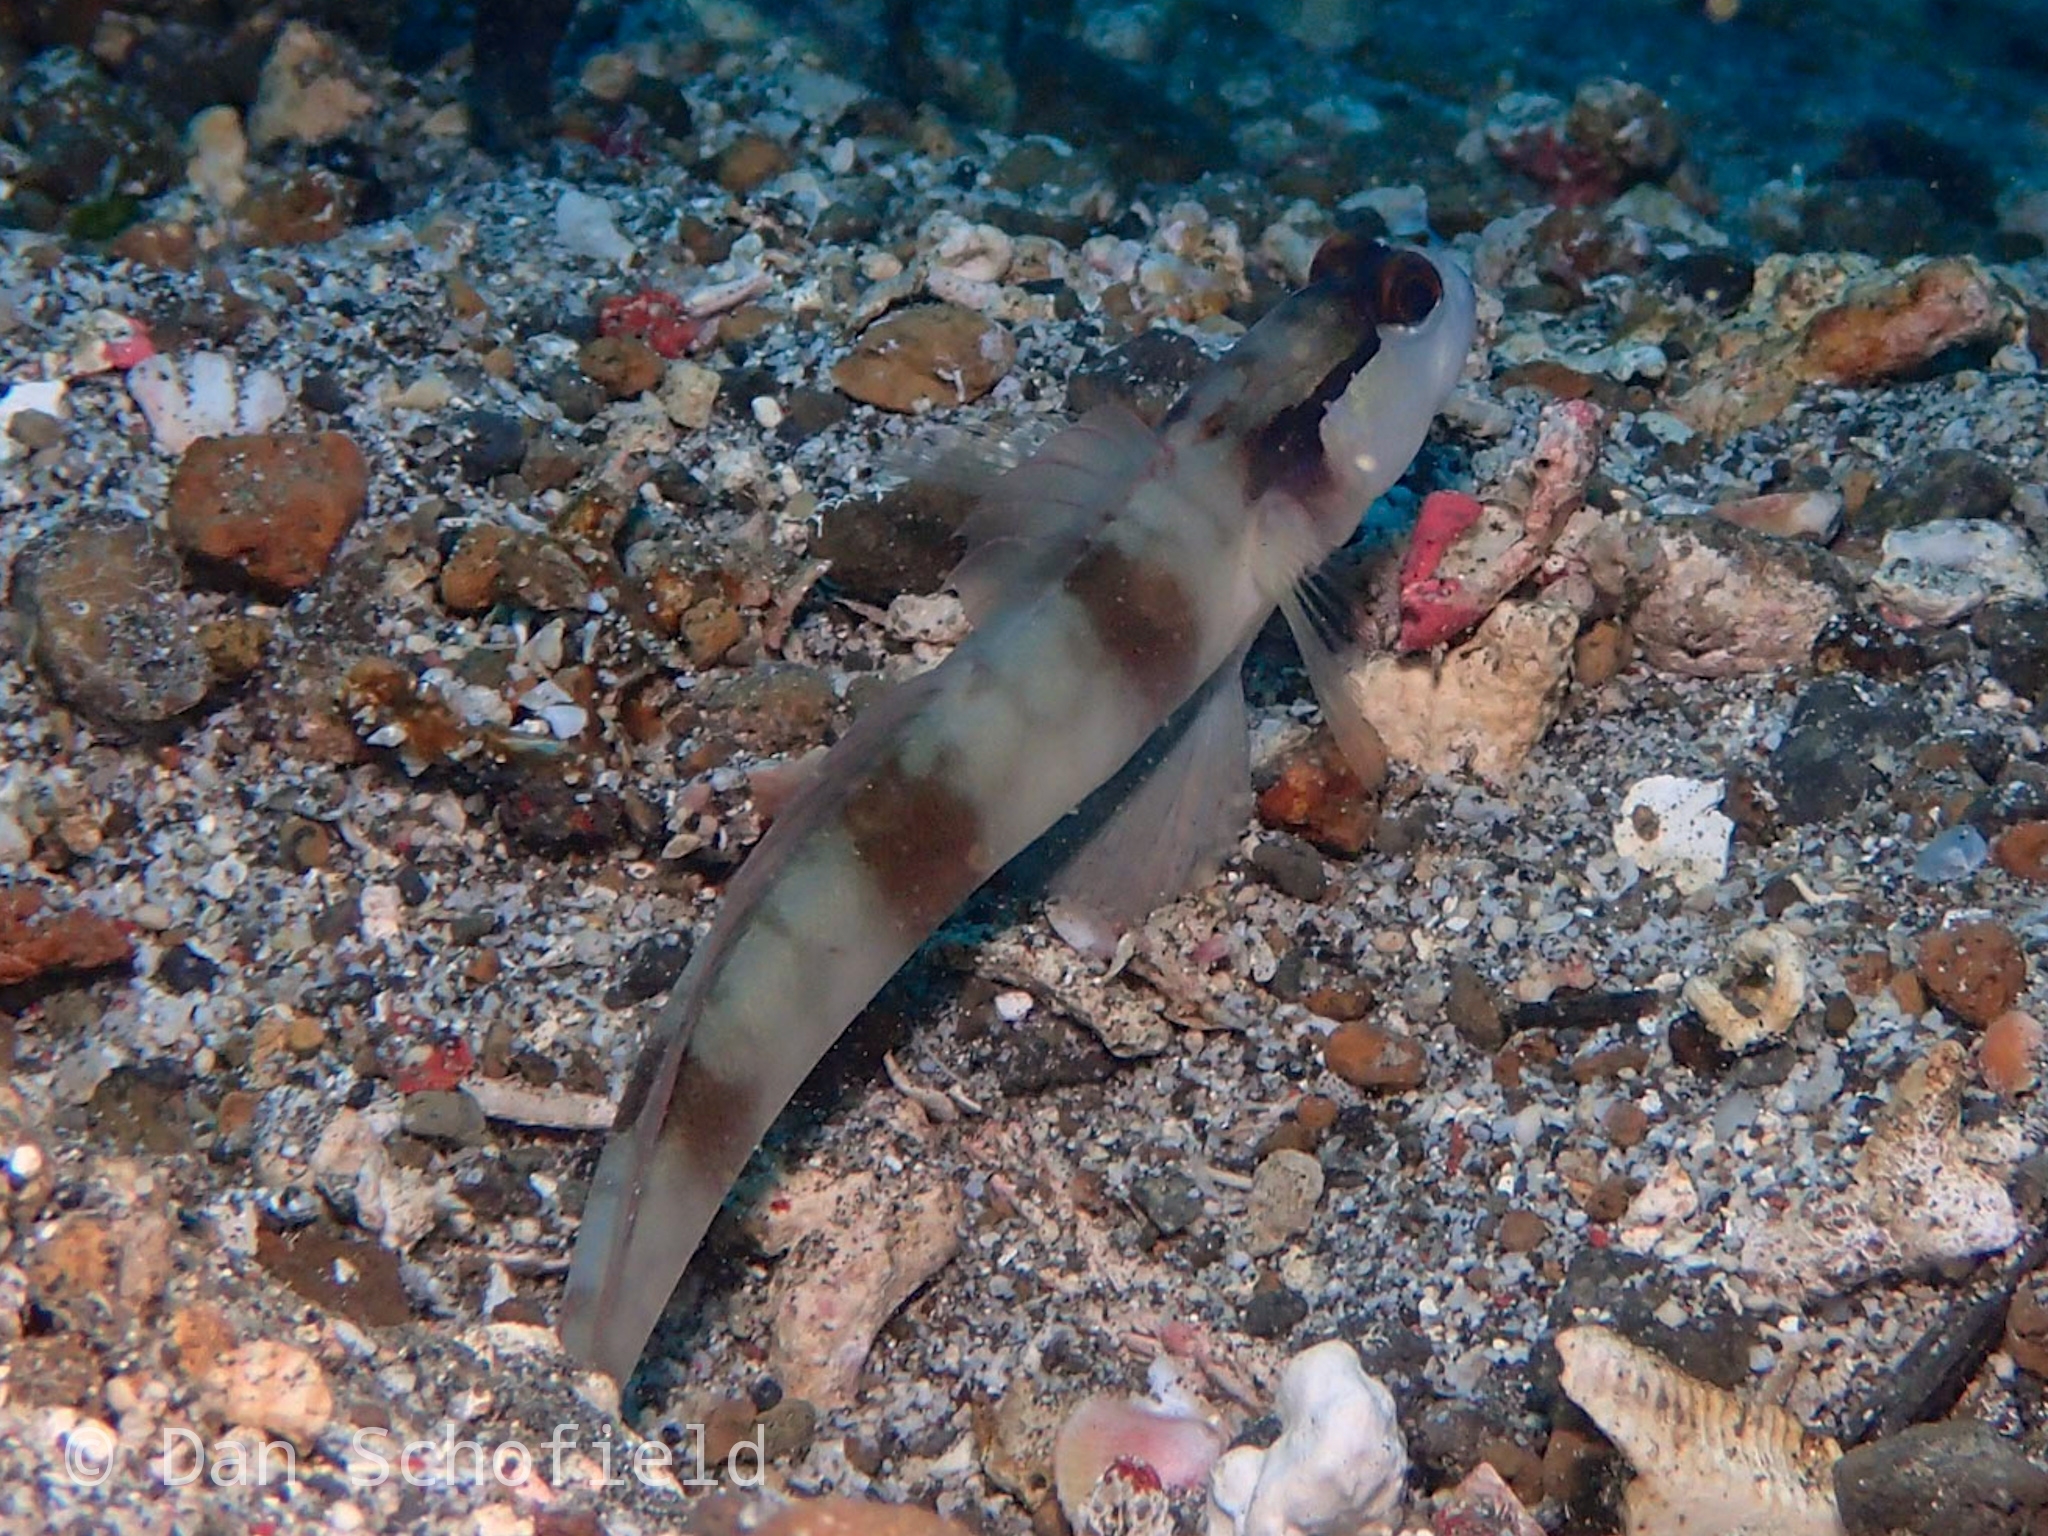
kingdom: Animalia
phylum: Chordata
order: Perciformes
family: Gobiidae
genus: Amblyeleotris
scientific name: Amblyeleotris gymnocephala
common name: Masked shrimpgoby
